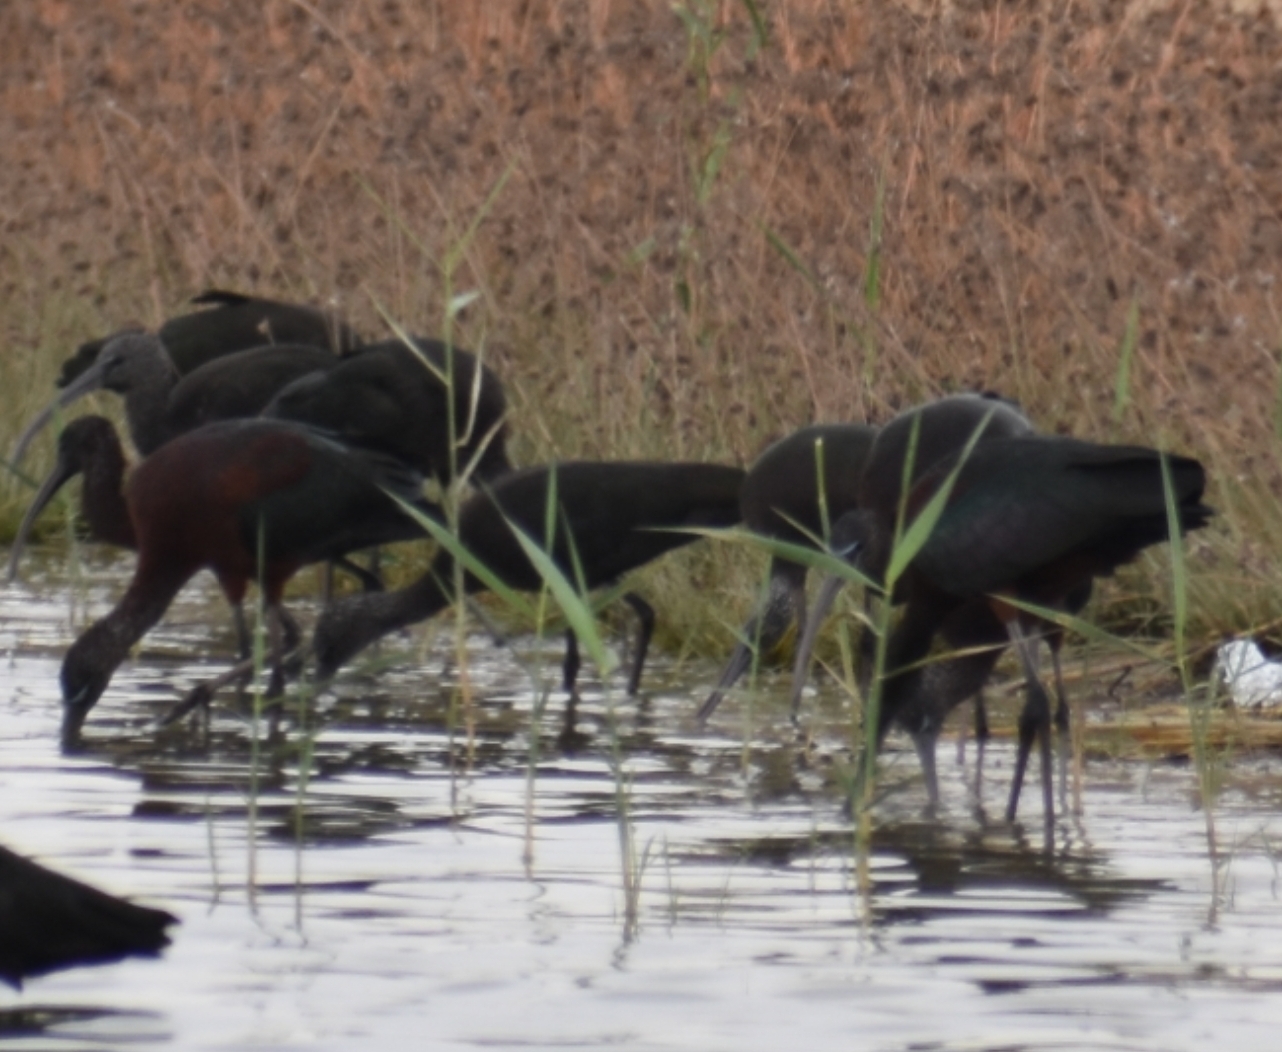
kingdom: Animalia
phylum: Chordata
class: Aves
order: Pelecaniformes
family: Threskiornithidae
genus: Plegadis
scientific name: Plegadis falcinellus
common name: Glossy ibis
